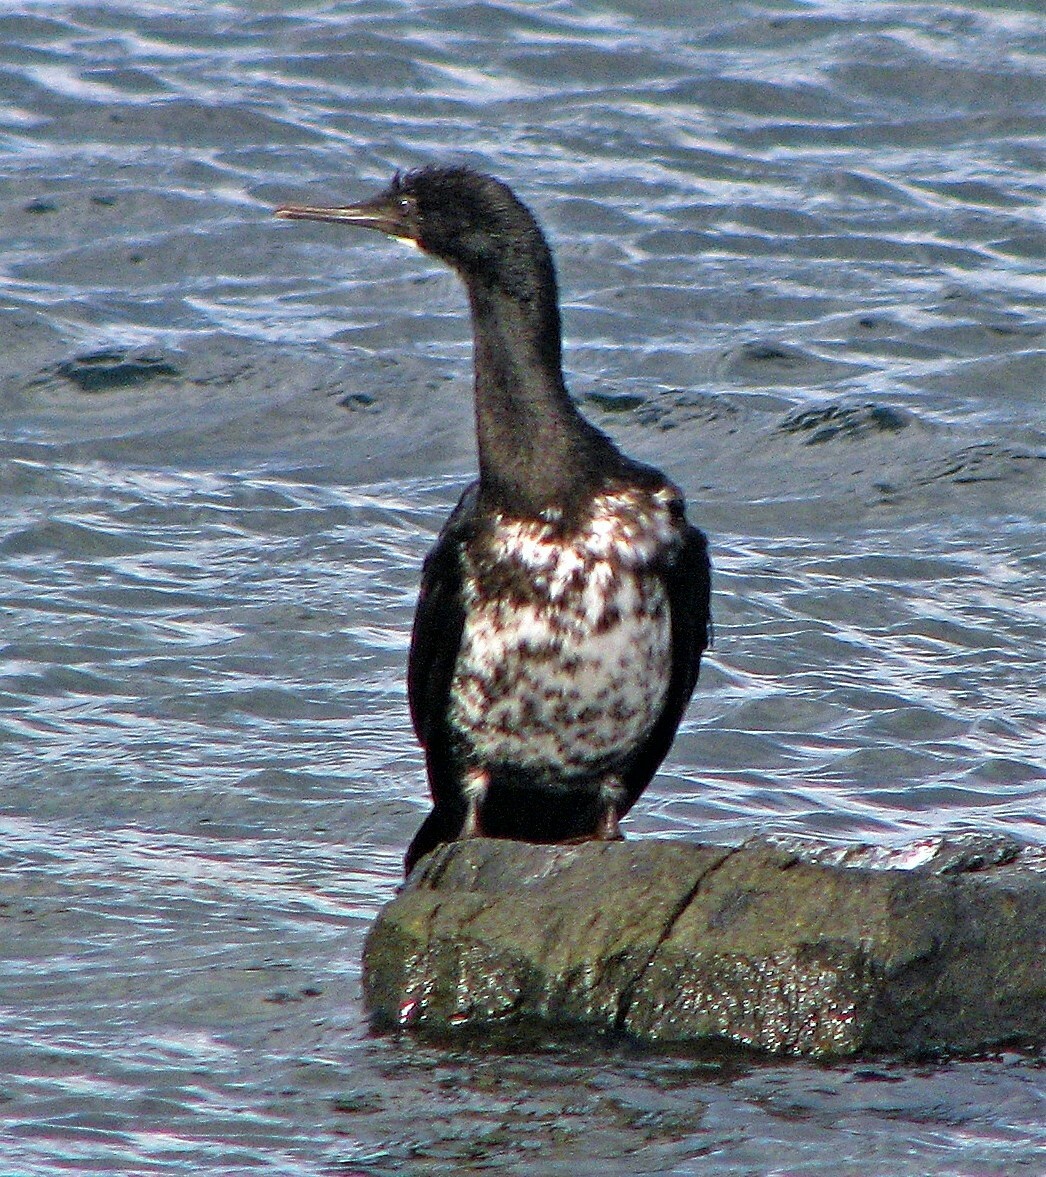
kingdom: Animalia
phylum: Chordata
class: Aves
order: Suliformes
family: Phalacrocoracidae
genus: Phalacrocorax
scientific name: Phalacrocorax magellanicus
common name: Rock shag
